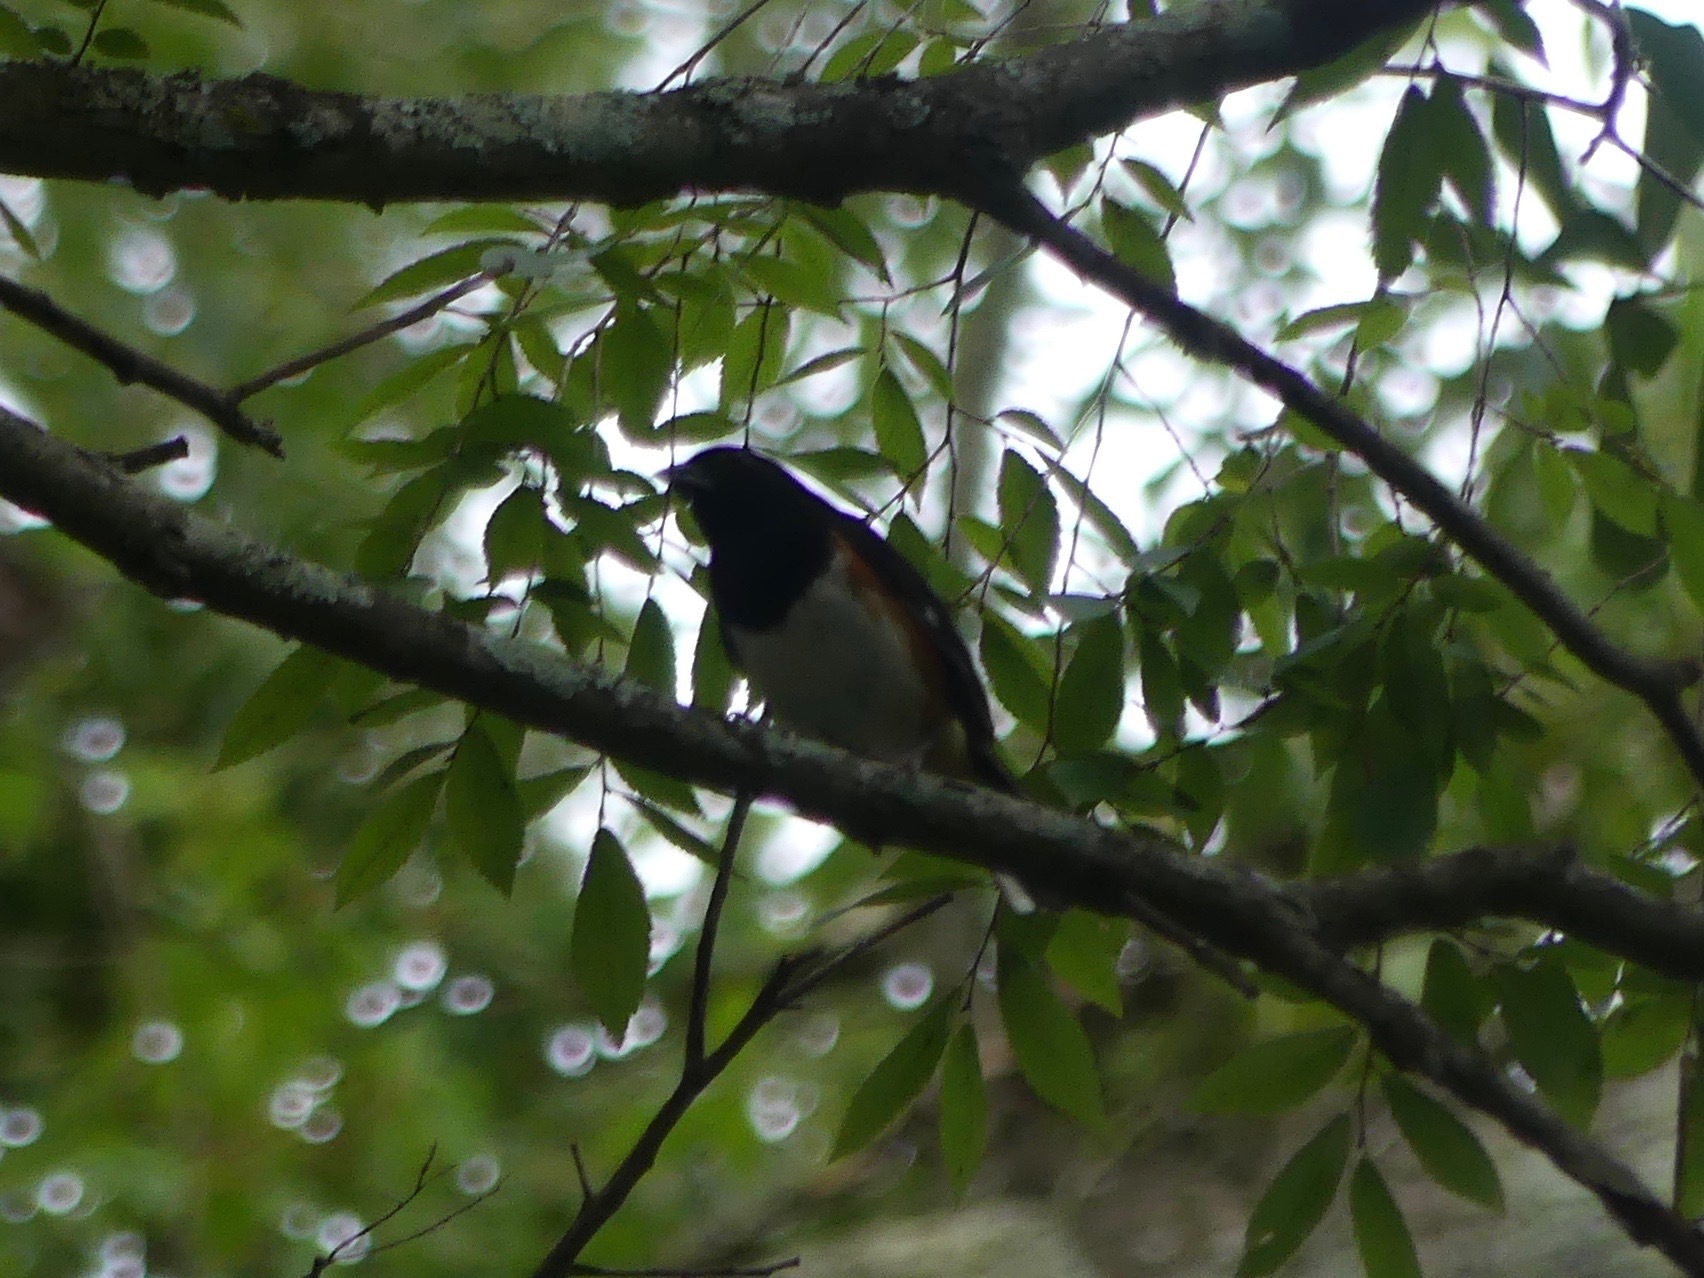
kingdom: Animalia
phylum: Chordata
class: Aves
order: Passeriformes
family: Passerellidae
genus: Pipilo
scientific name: Pipilo erythrophthalmus
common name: Eastern towhee
